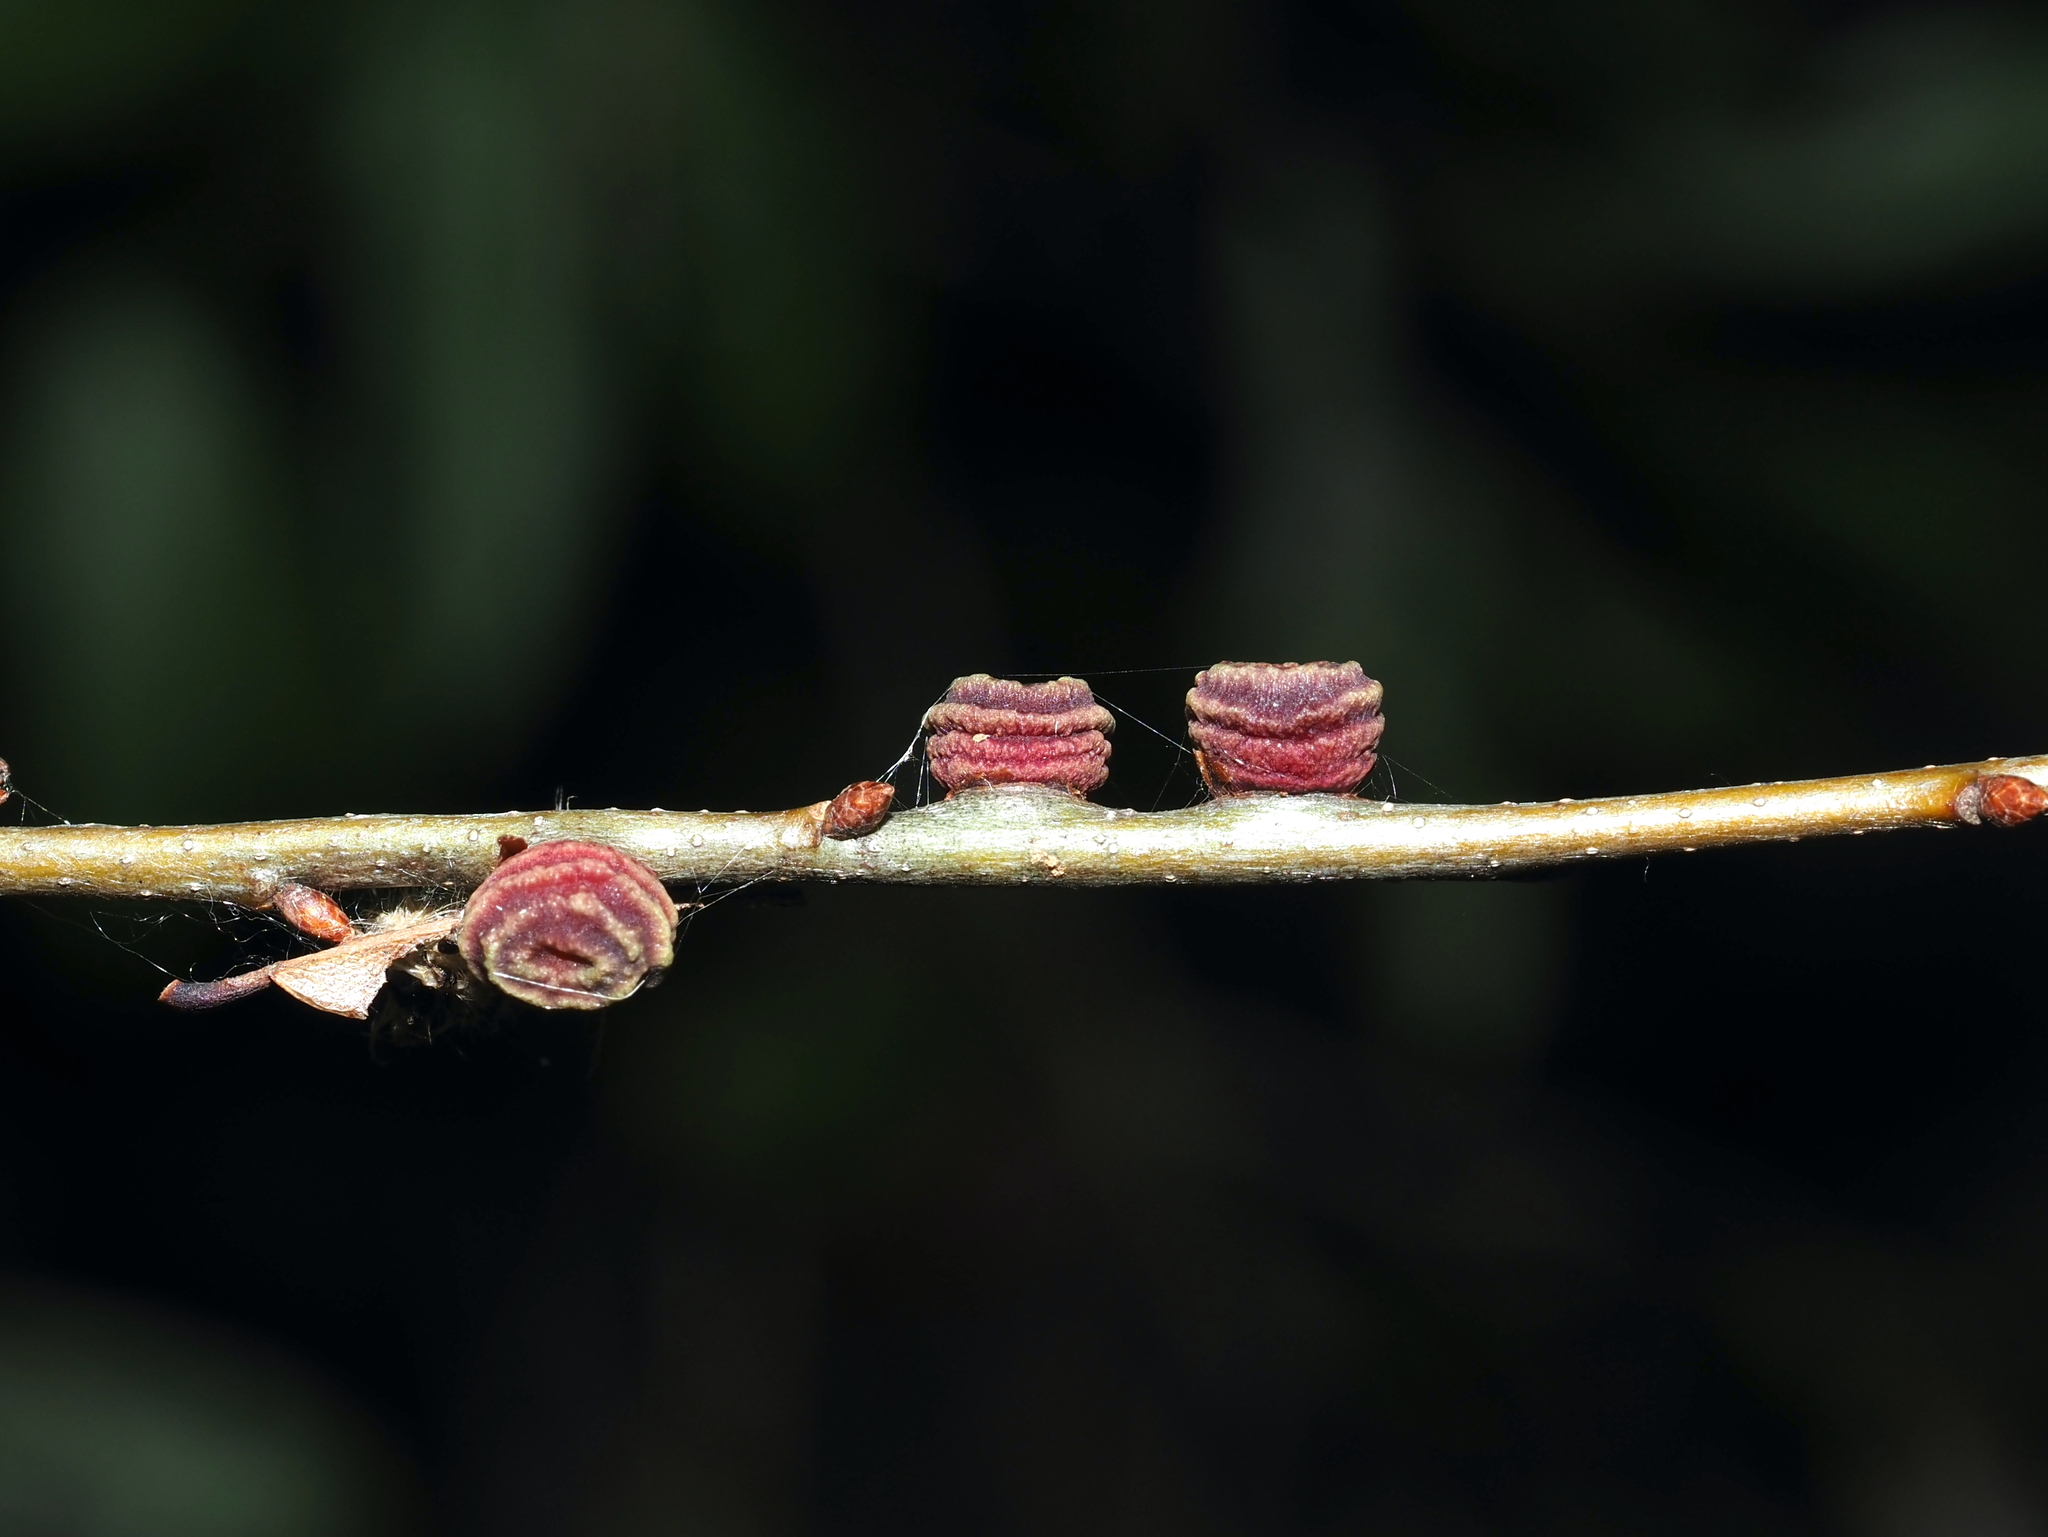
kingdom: Animalia
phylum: Arthropoda
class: Insecta
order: Hymenoptera
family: Cynipidae
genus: Kokkocynips
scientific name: Kokkocynips difficilis
